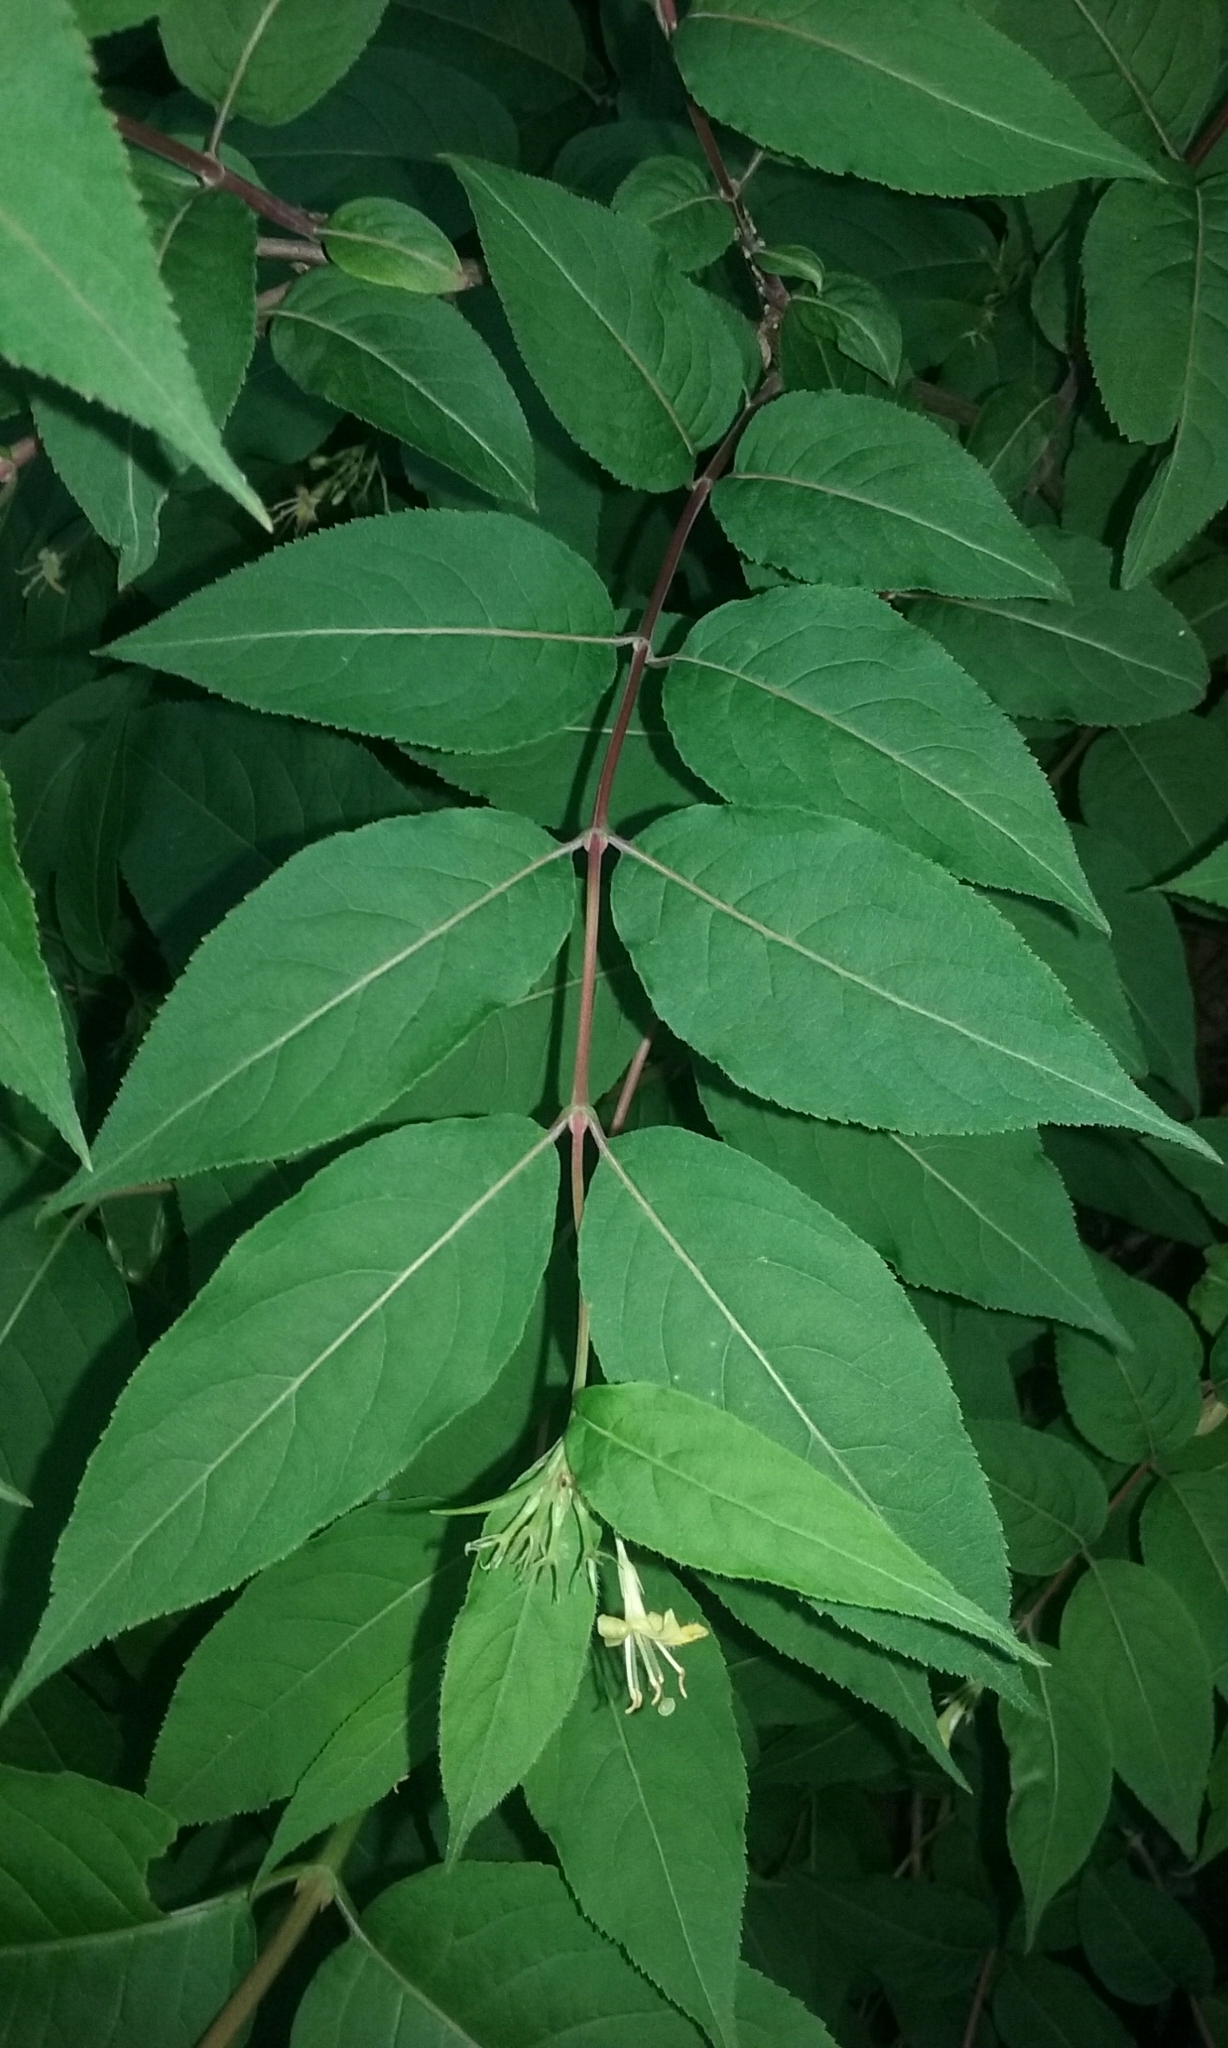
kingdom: Plantae
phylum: Tracheophyta
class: Magnoliopsida
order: Dipsacales
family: Caprifoliaceae
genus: Diervilla
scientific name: Diervilla lonicera
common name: Bush-honeysuckle
